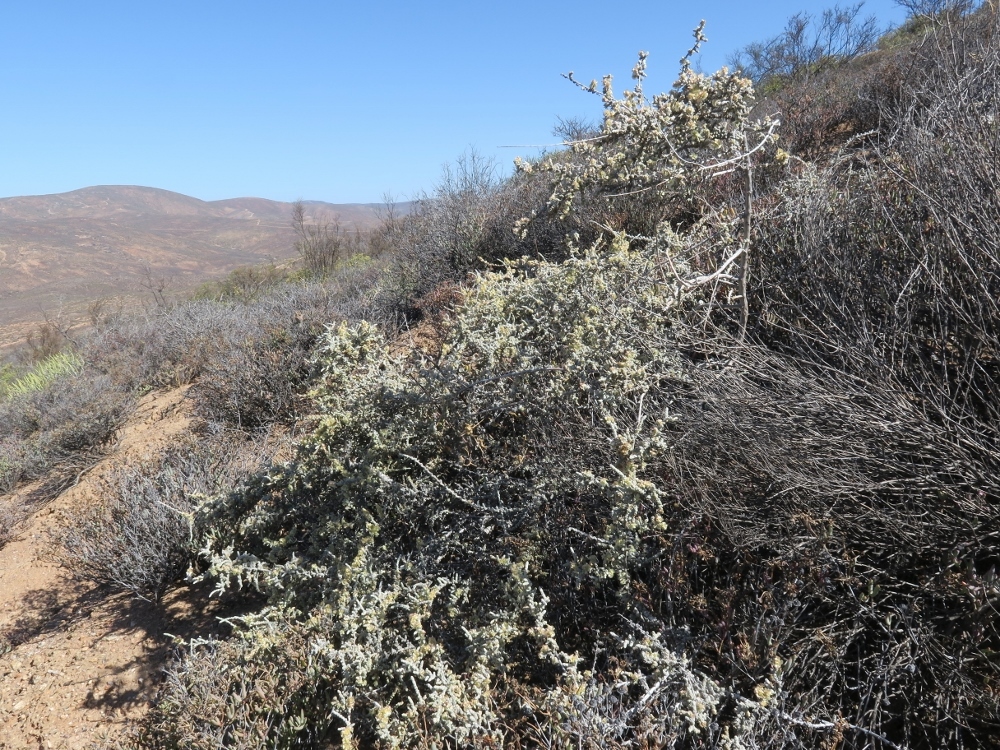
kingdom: Plantae
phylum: Tracheophyta
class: Magnoliopsida
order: Caryophyllales
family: Amaranthaceae
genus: Caroxylon
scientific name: Caroxylon aphyllum
